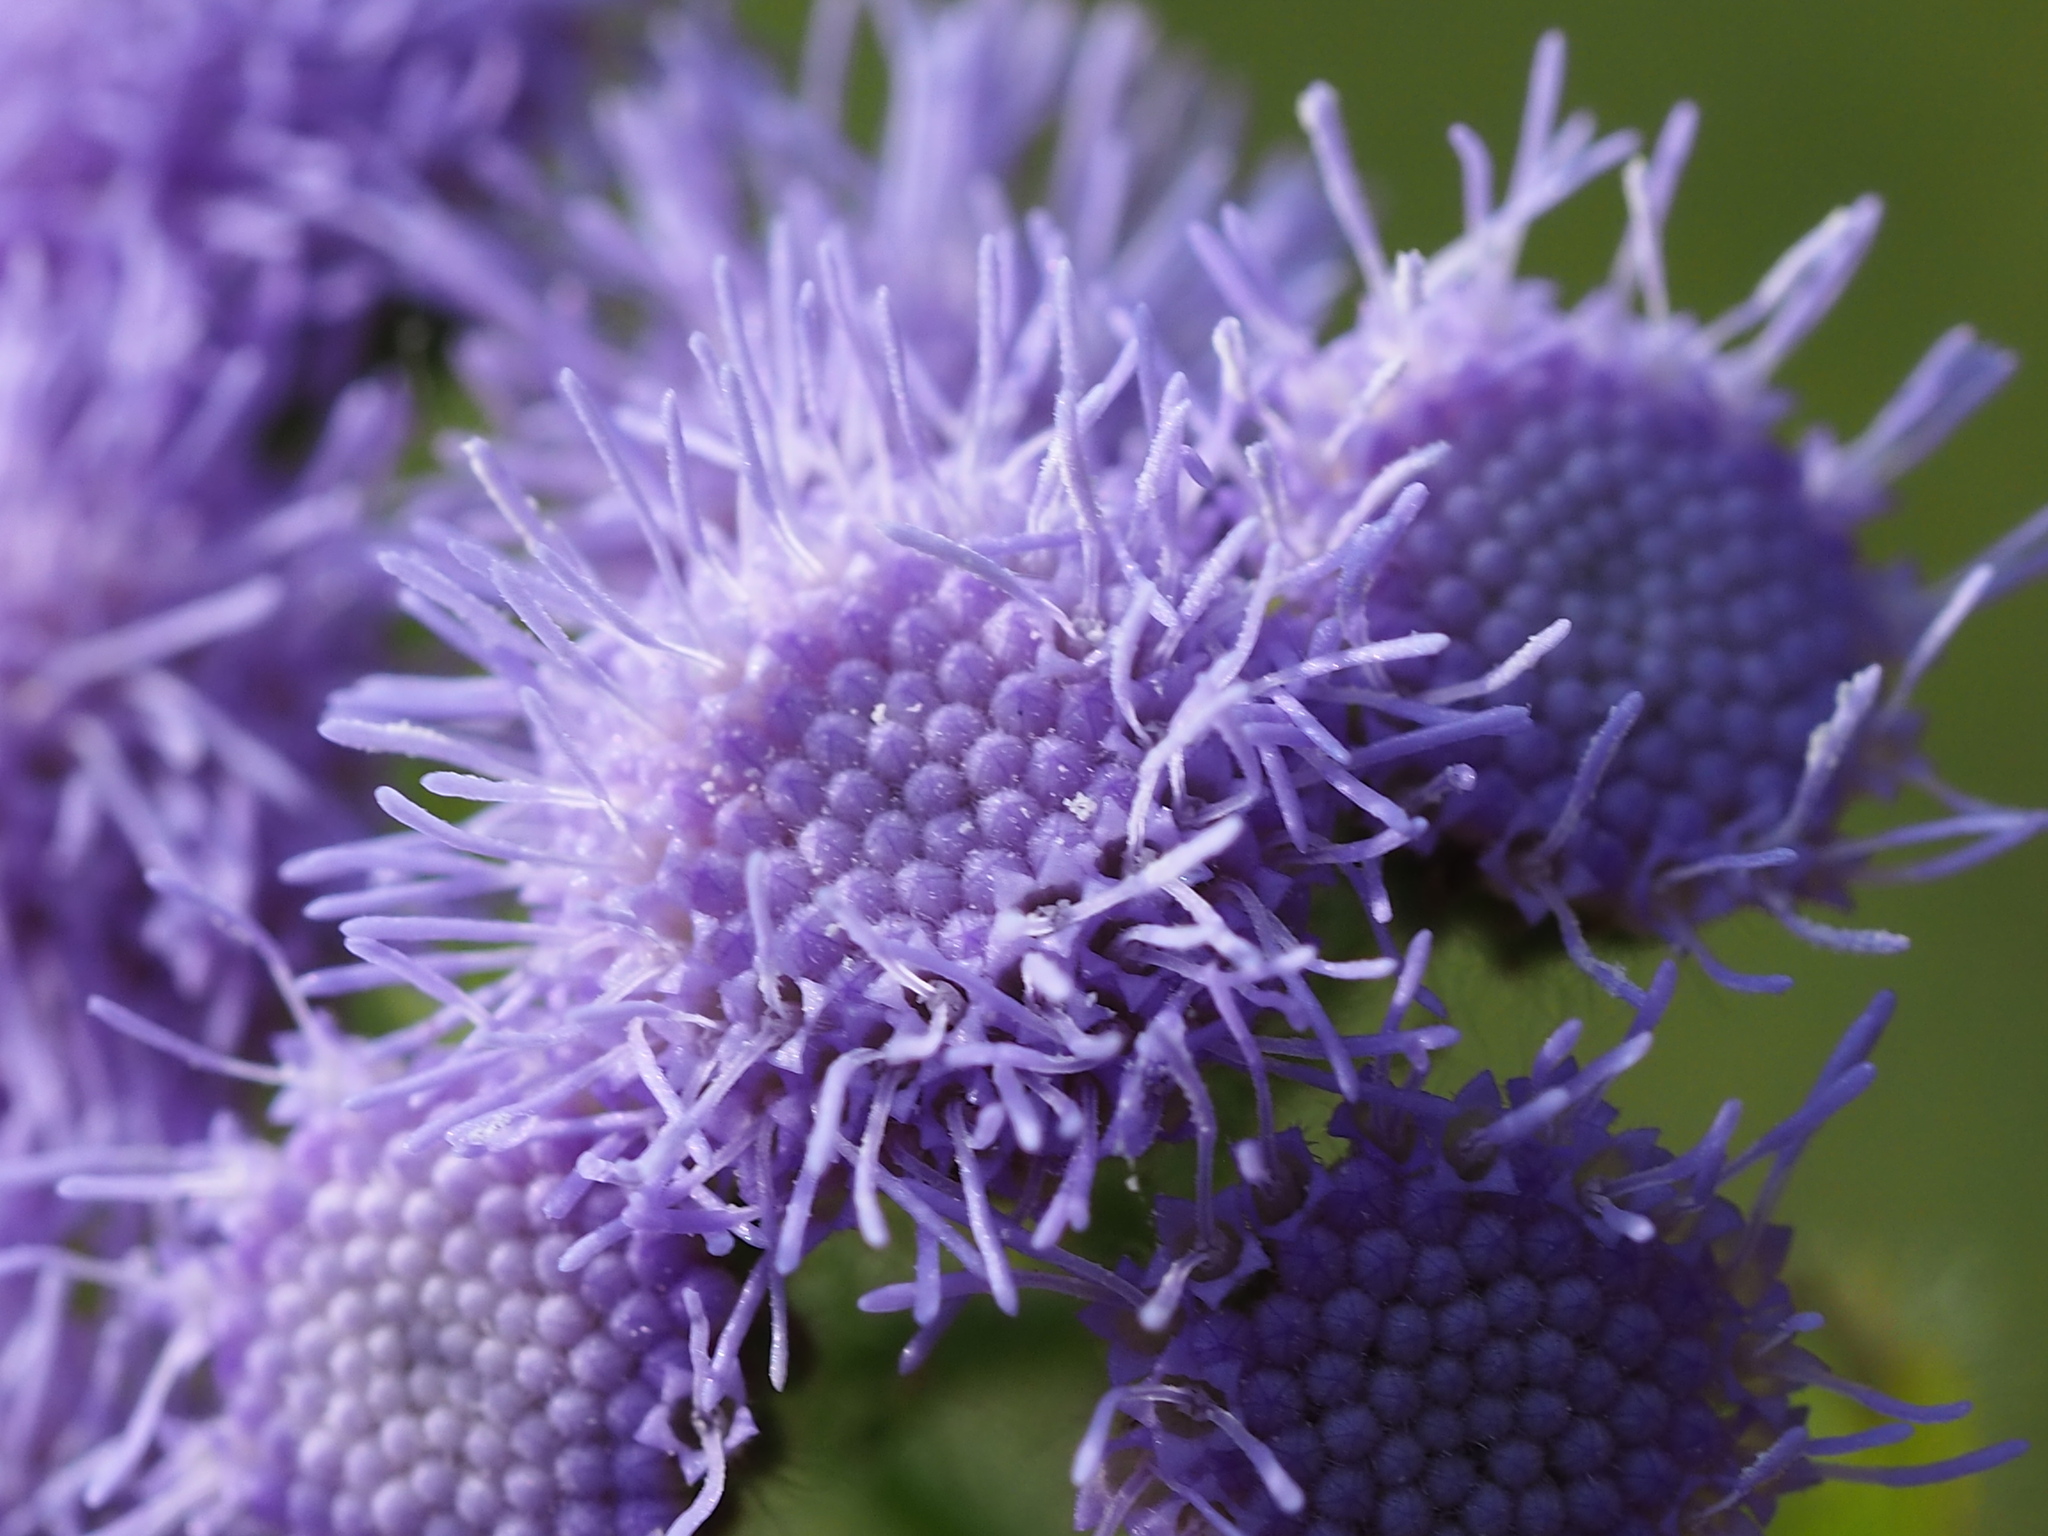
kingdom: Plantae
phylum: Tracheophyta
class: Magnoliopsida
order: Asterales
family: Asteraceae
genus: Ageratum
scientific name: Ageratum houstonianum
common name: Bluemink
